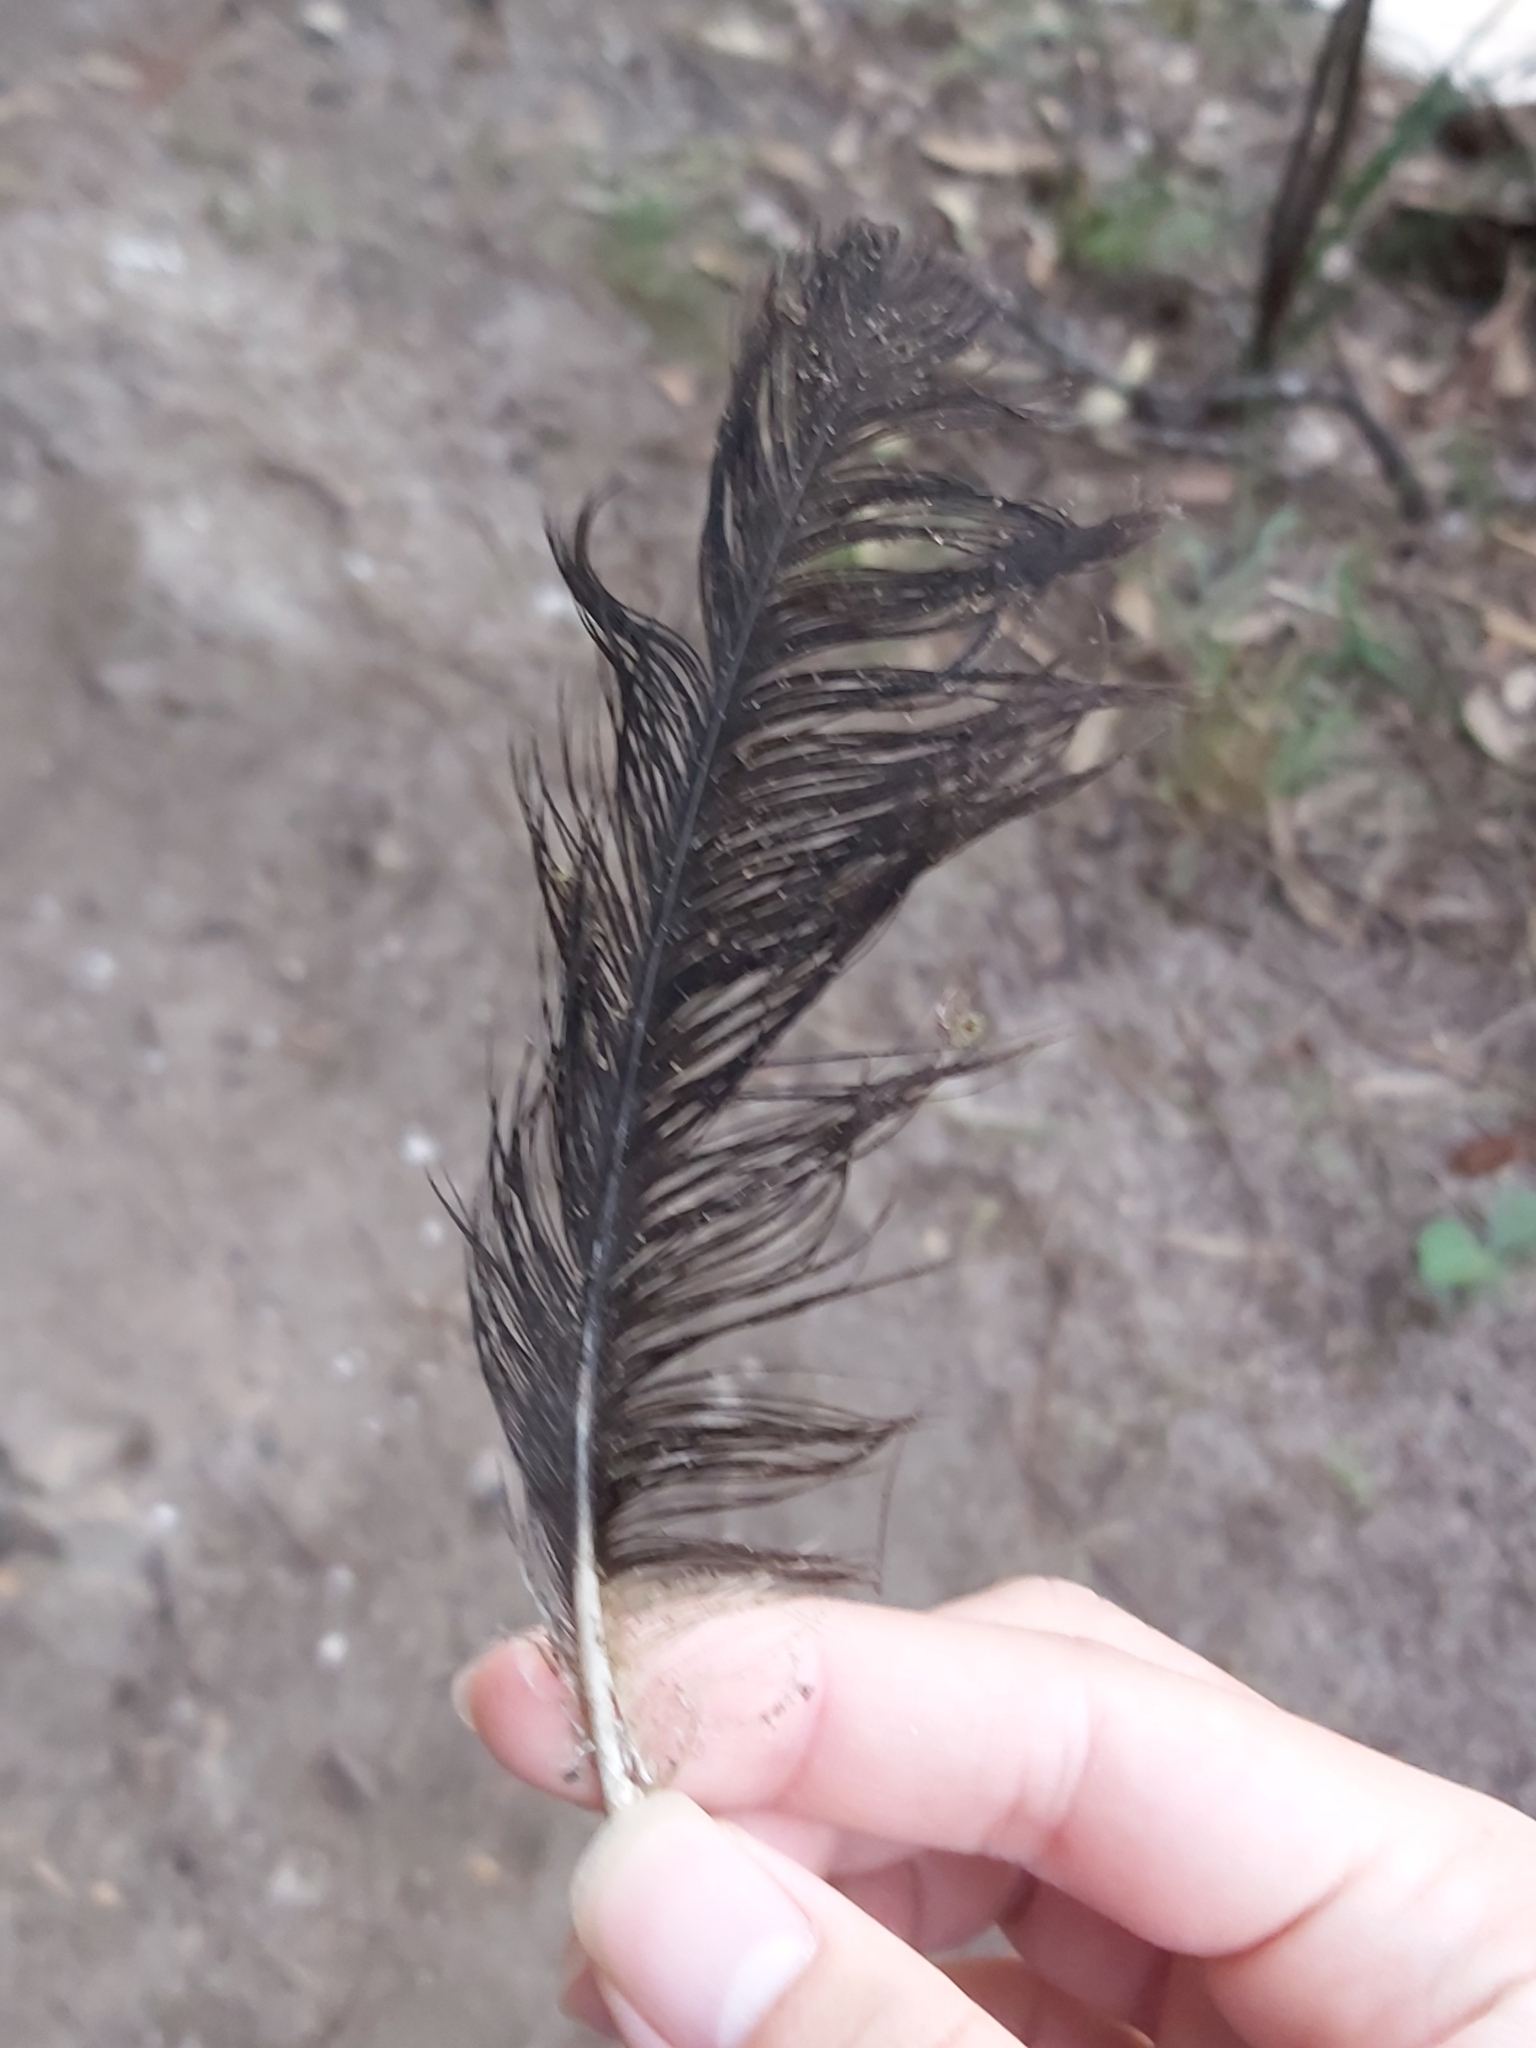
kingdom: Animalia
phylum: Chordata
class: Aves
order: Galliformes
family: Megapodiidae
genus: Alectura
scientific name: Alectura lathami
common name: Australian brushturkey
